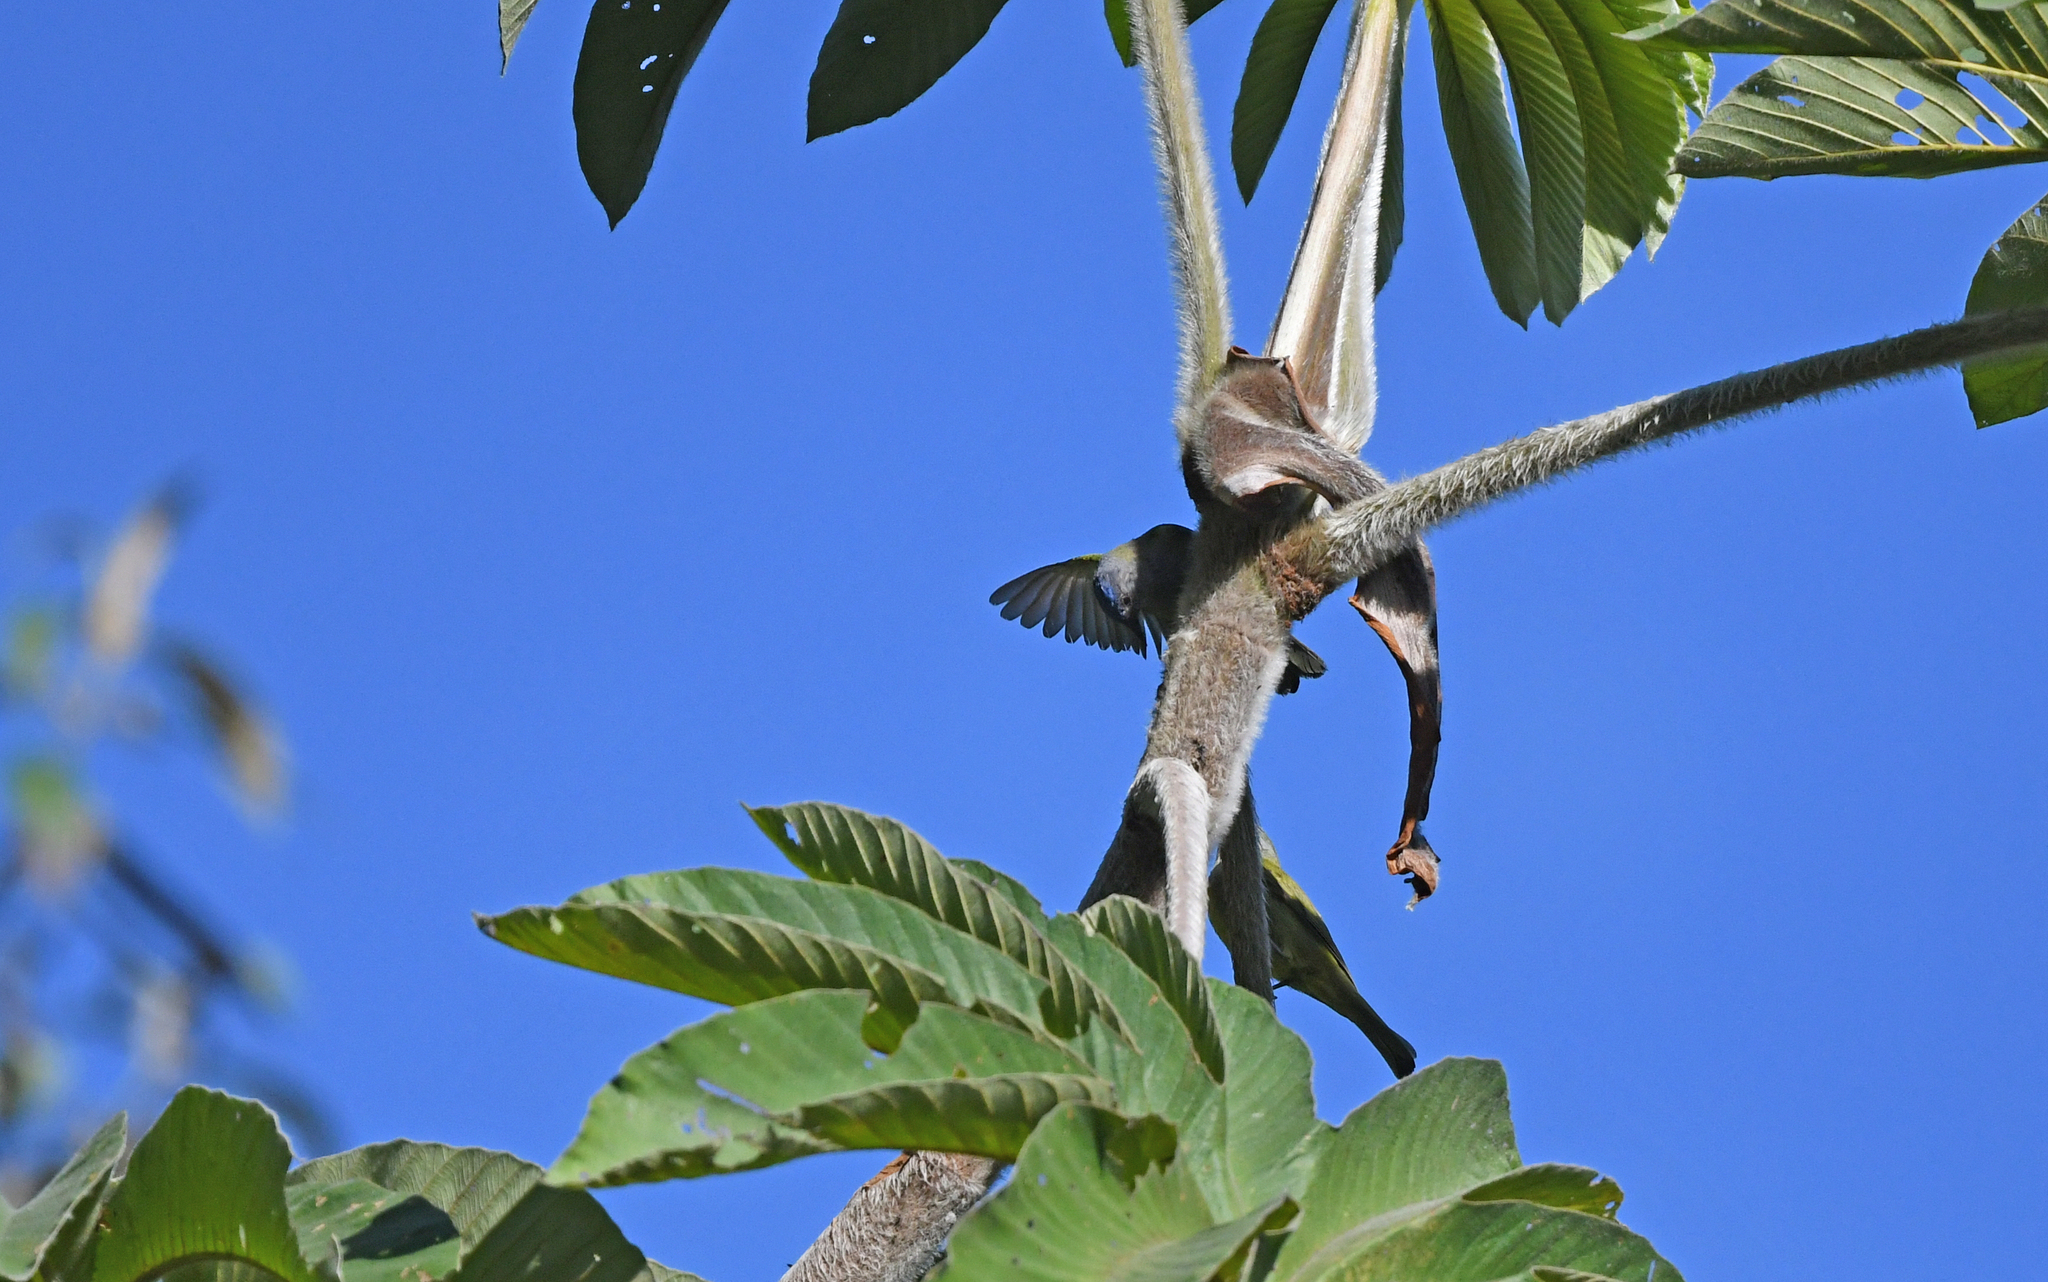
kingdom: Animalia
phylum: Chordata
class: Aves
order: Passeriformes
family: Thraupidae
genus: Conirostrum
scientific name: Conirostrum albifrons
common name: Capped conebill
